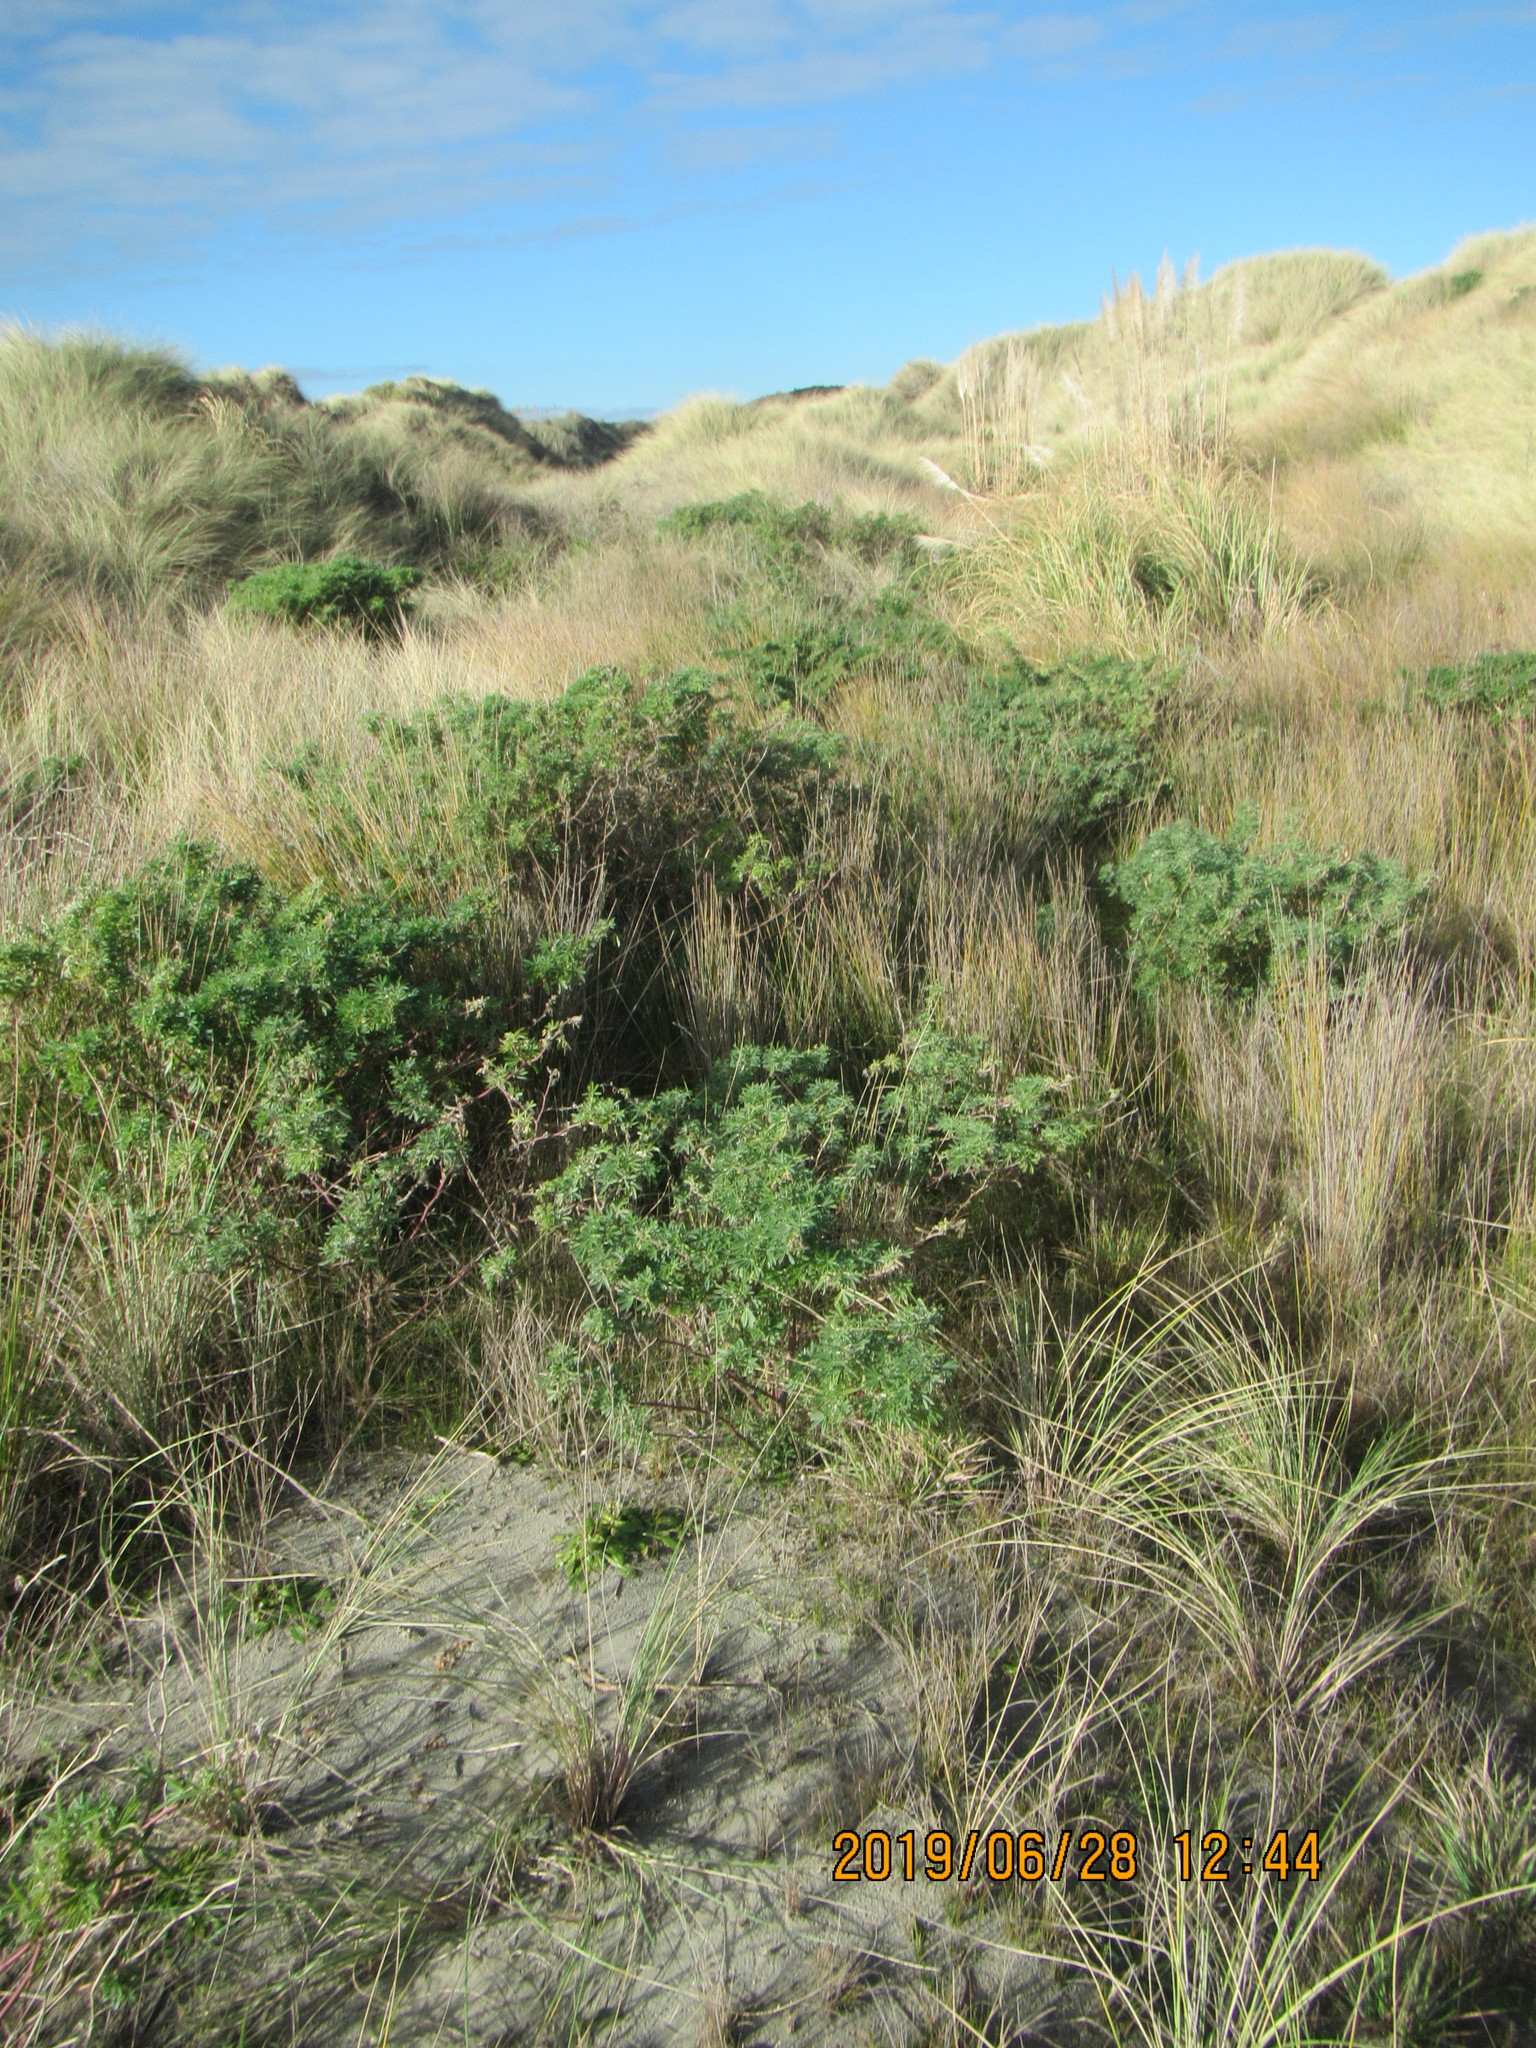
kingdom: Plantae
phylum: Tracheophyta
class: Magnoliopsida
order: Fabales
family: Fabaceae
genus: Lupinus
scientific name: Lupinus arboreus
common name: Yellow bush lupine
